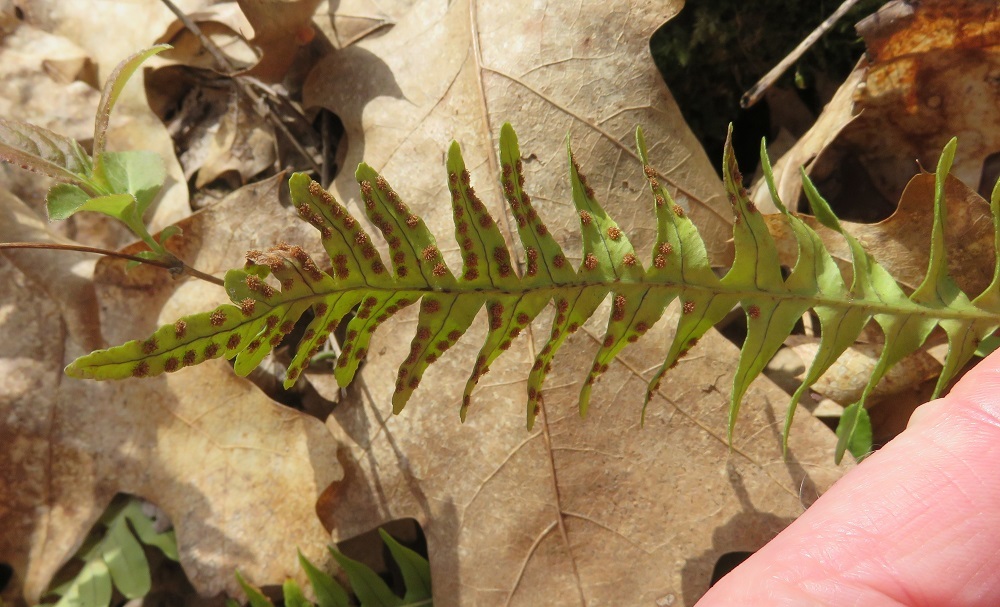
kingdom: Plantae
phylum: Tracheophyta
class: Polypodiopsida
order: Polypodiales
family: Polypodiaceae
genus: Polypodium
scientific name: Polypodium virginianum
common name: American wall fern
